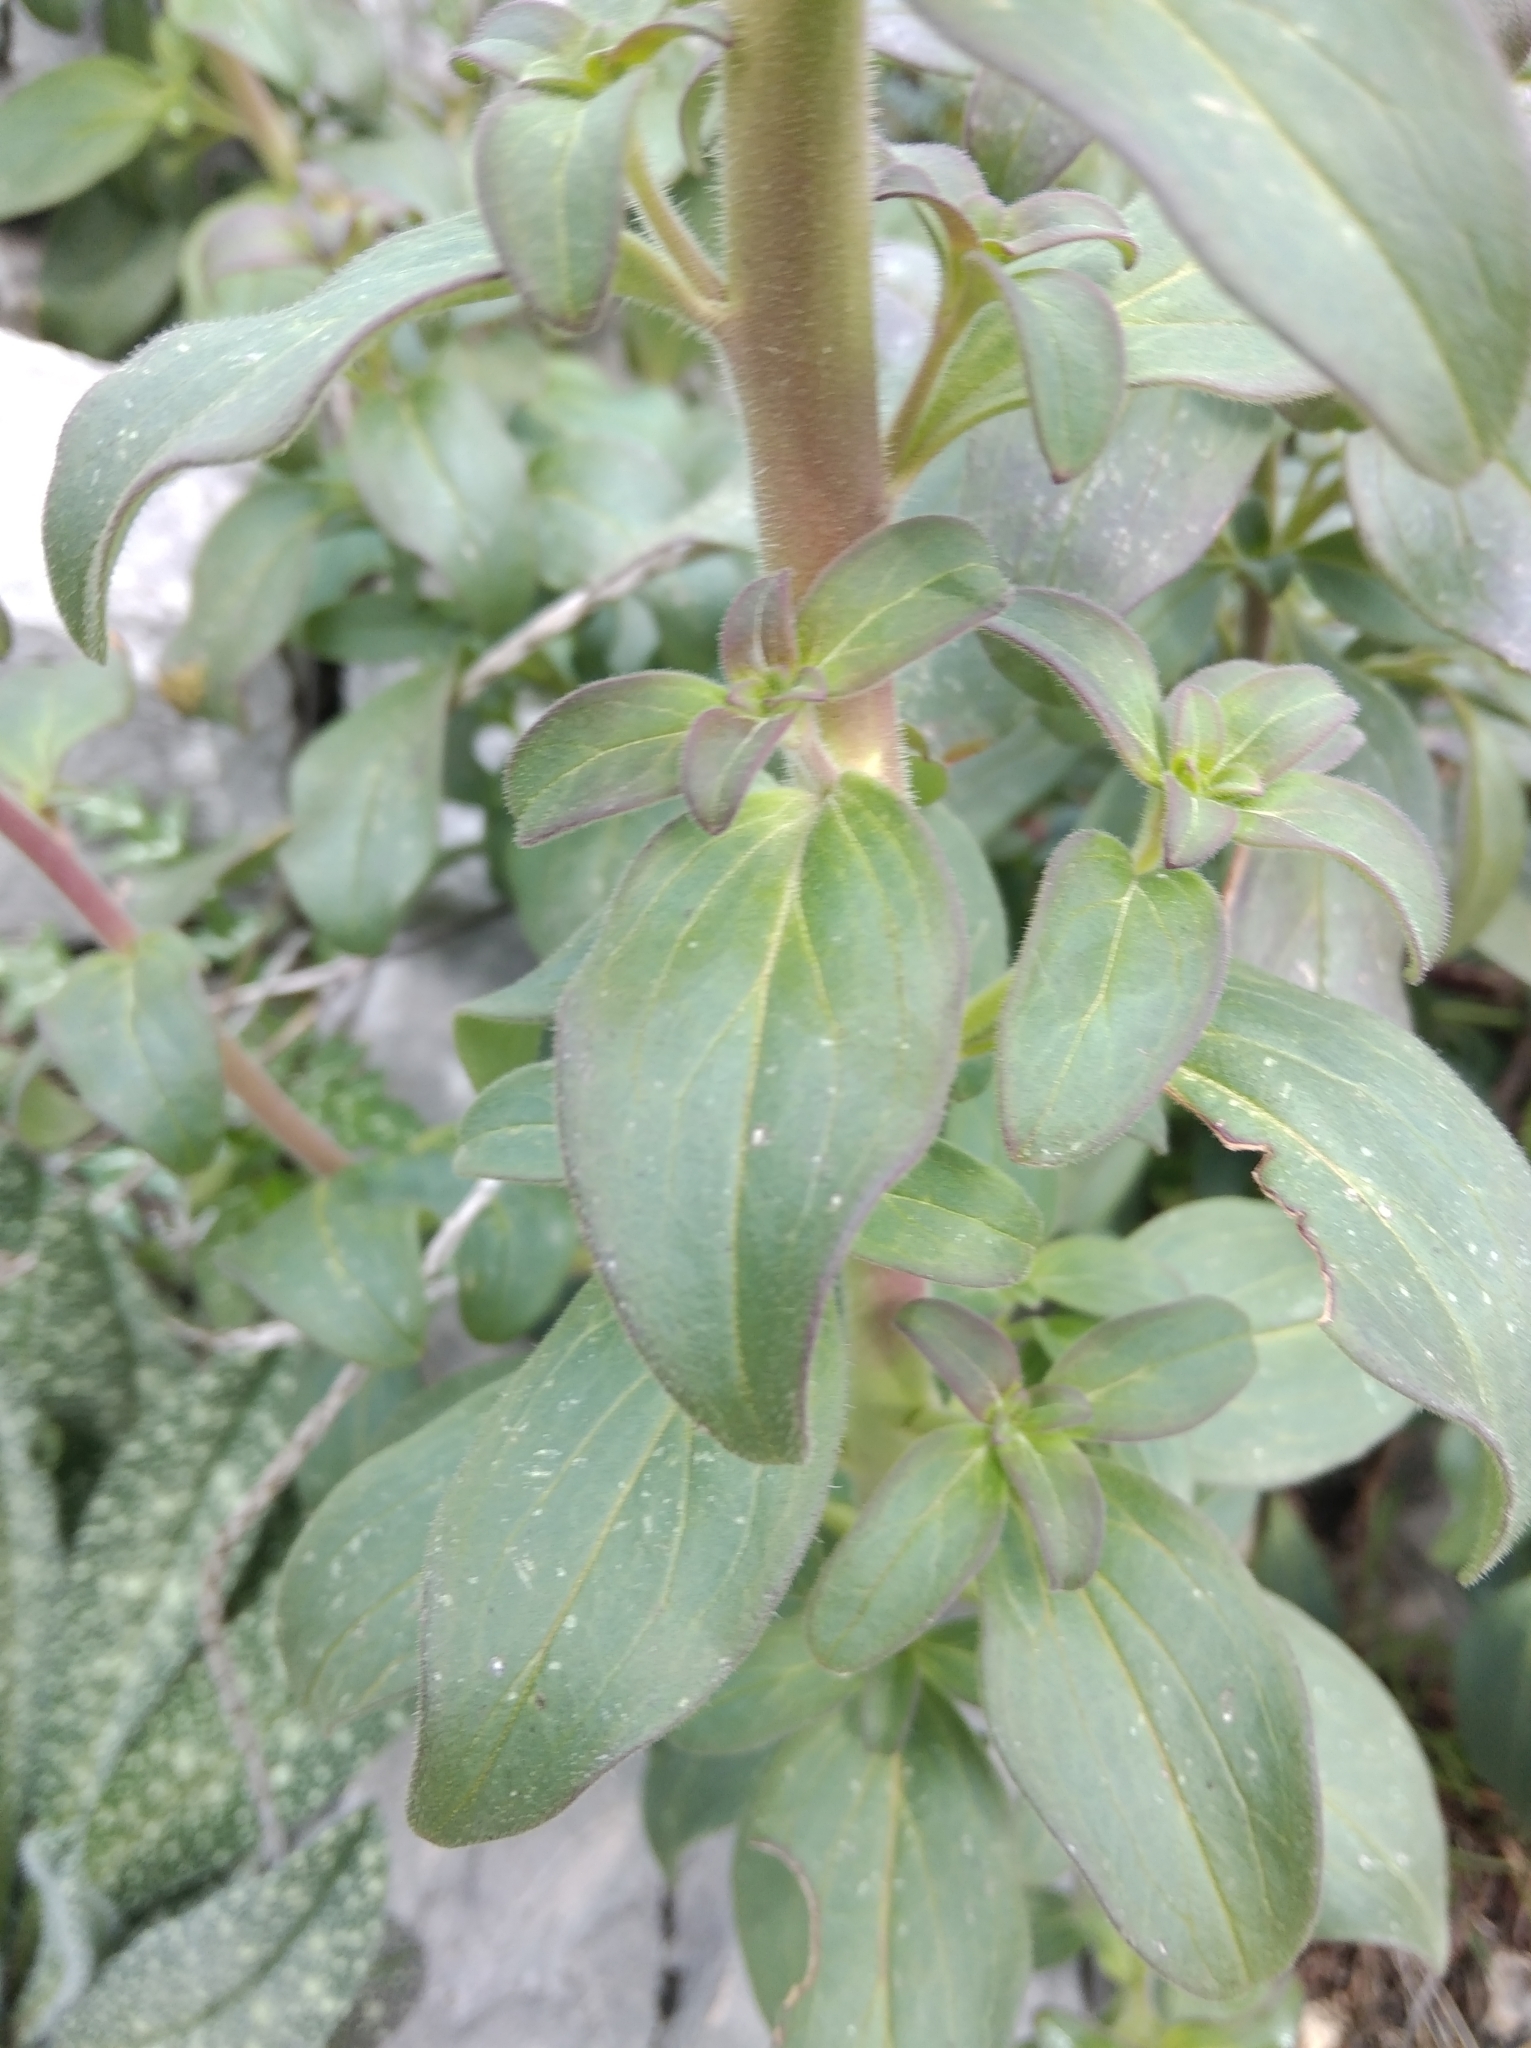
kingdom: Plantae
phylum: Tracheophyta
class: Magnoliopsida
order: Lamiales
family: Plantaginaceae
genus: Antirrhinum
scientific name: Antirrhinum latifolium
